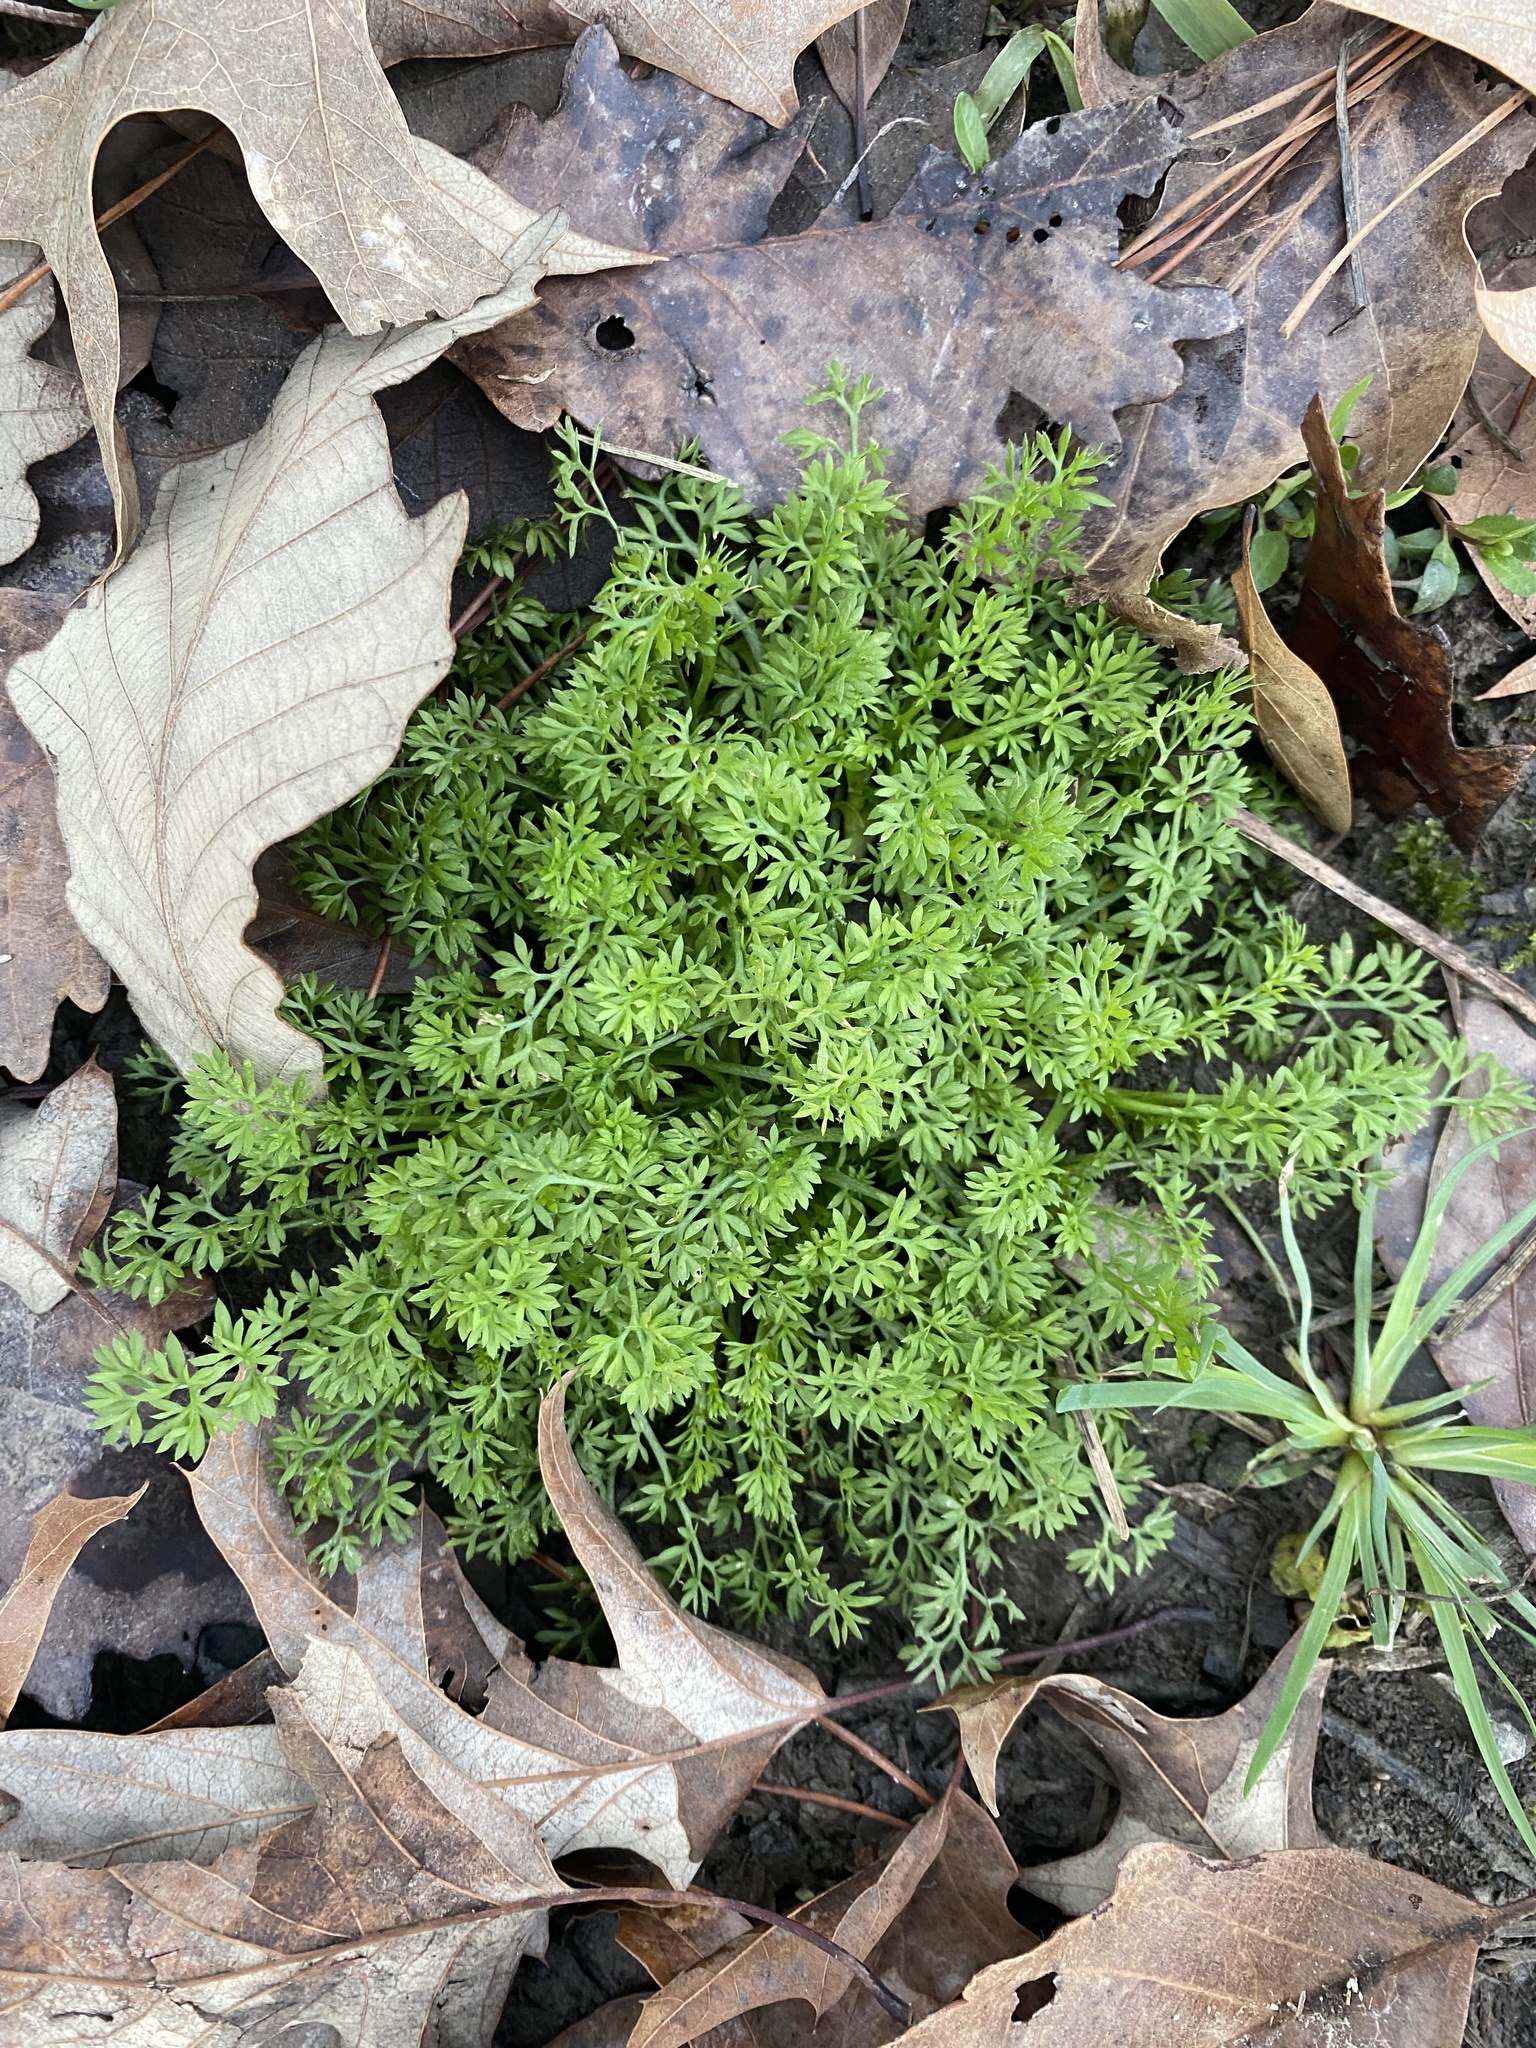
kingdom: Plantae
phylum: Tracheophyta
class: Magnoliopsida
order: Asterales
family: Asteraceae
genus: Soliva
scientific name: Soliva sessilis
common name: Field burrweed
